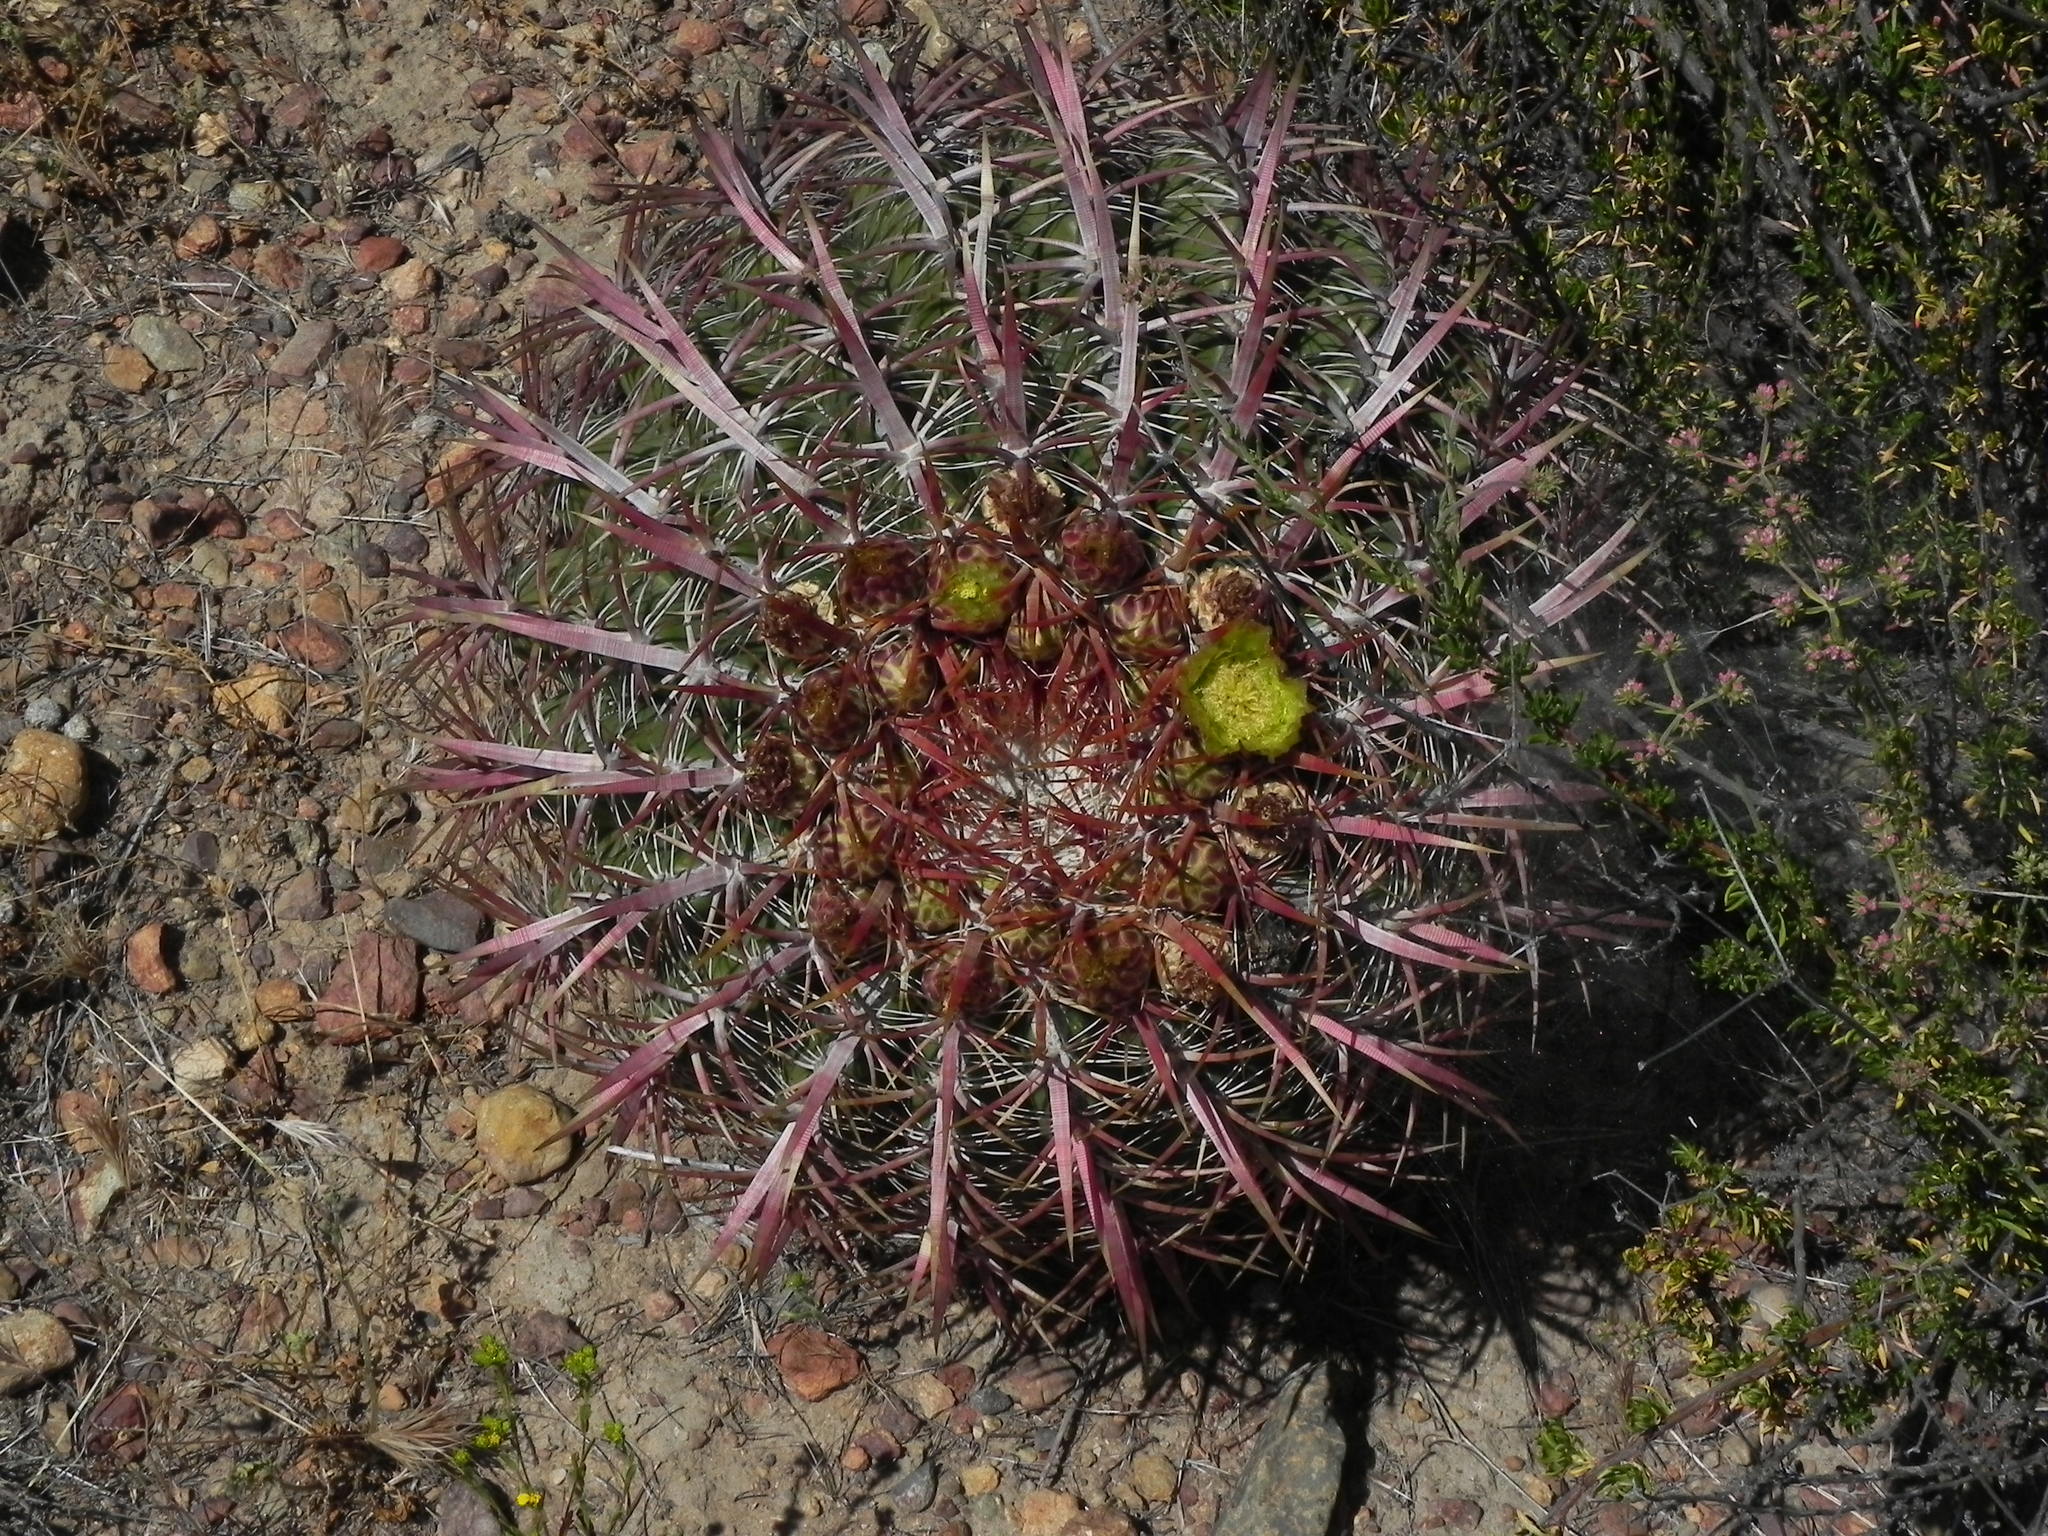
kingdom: Plantae
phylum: Tracheophyta
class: Magnoliopsida
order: Caryophyllales
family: Cactaceae
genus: Ferocactus
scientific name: Ferocactus viridescens
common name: San diego barrel cactus
